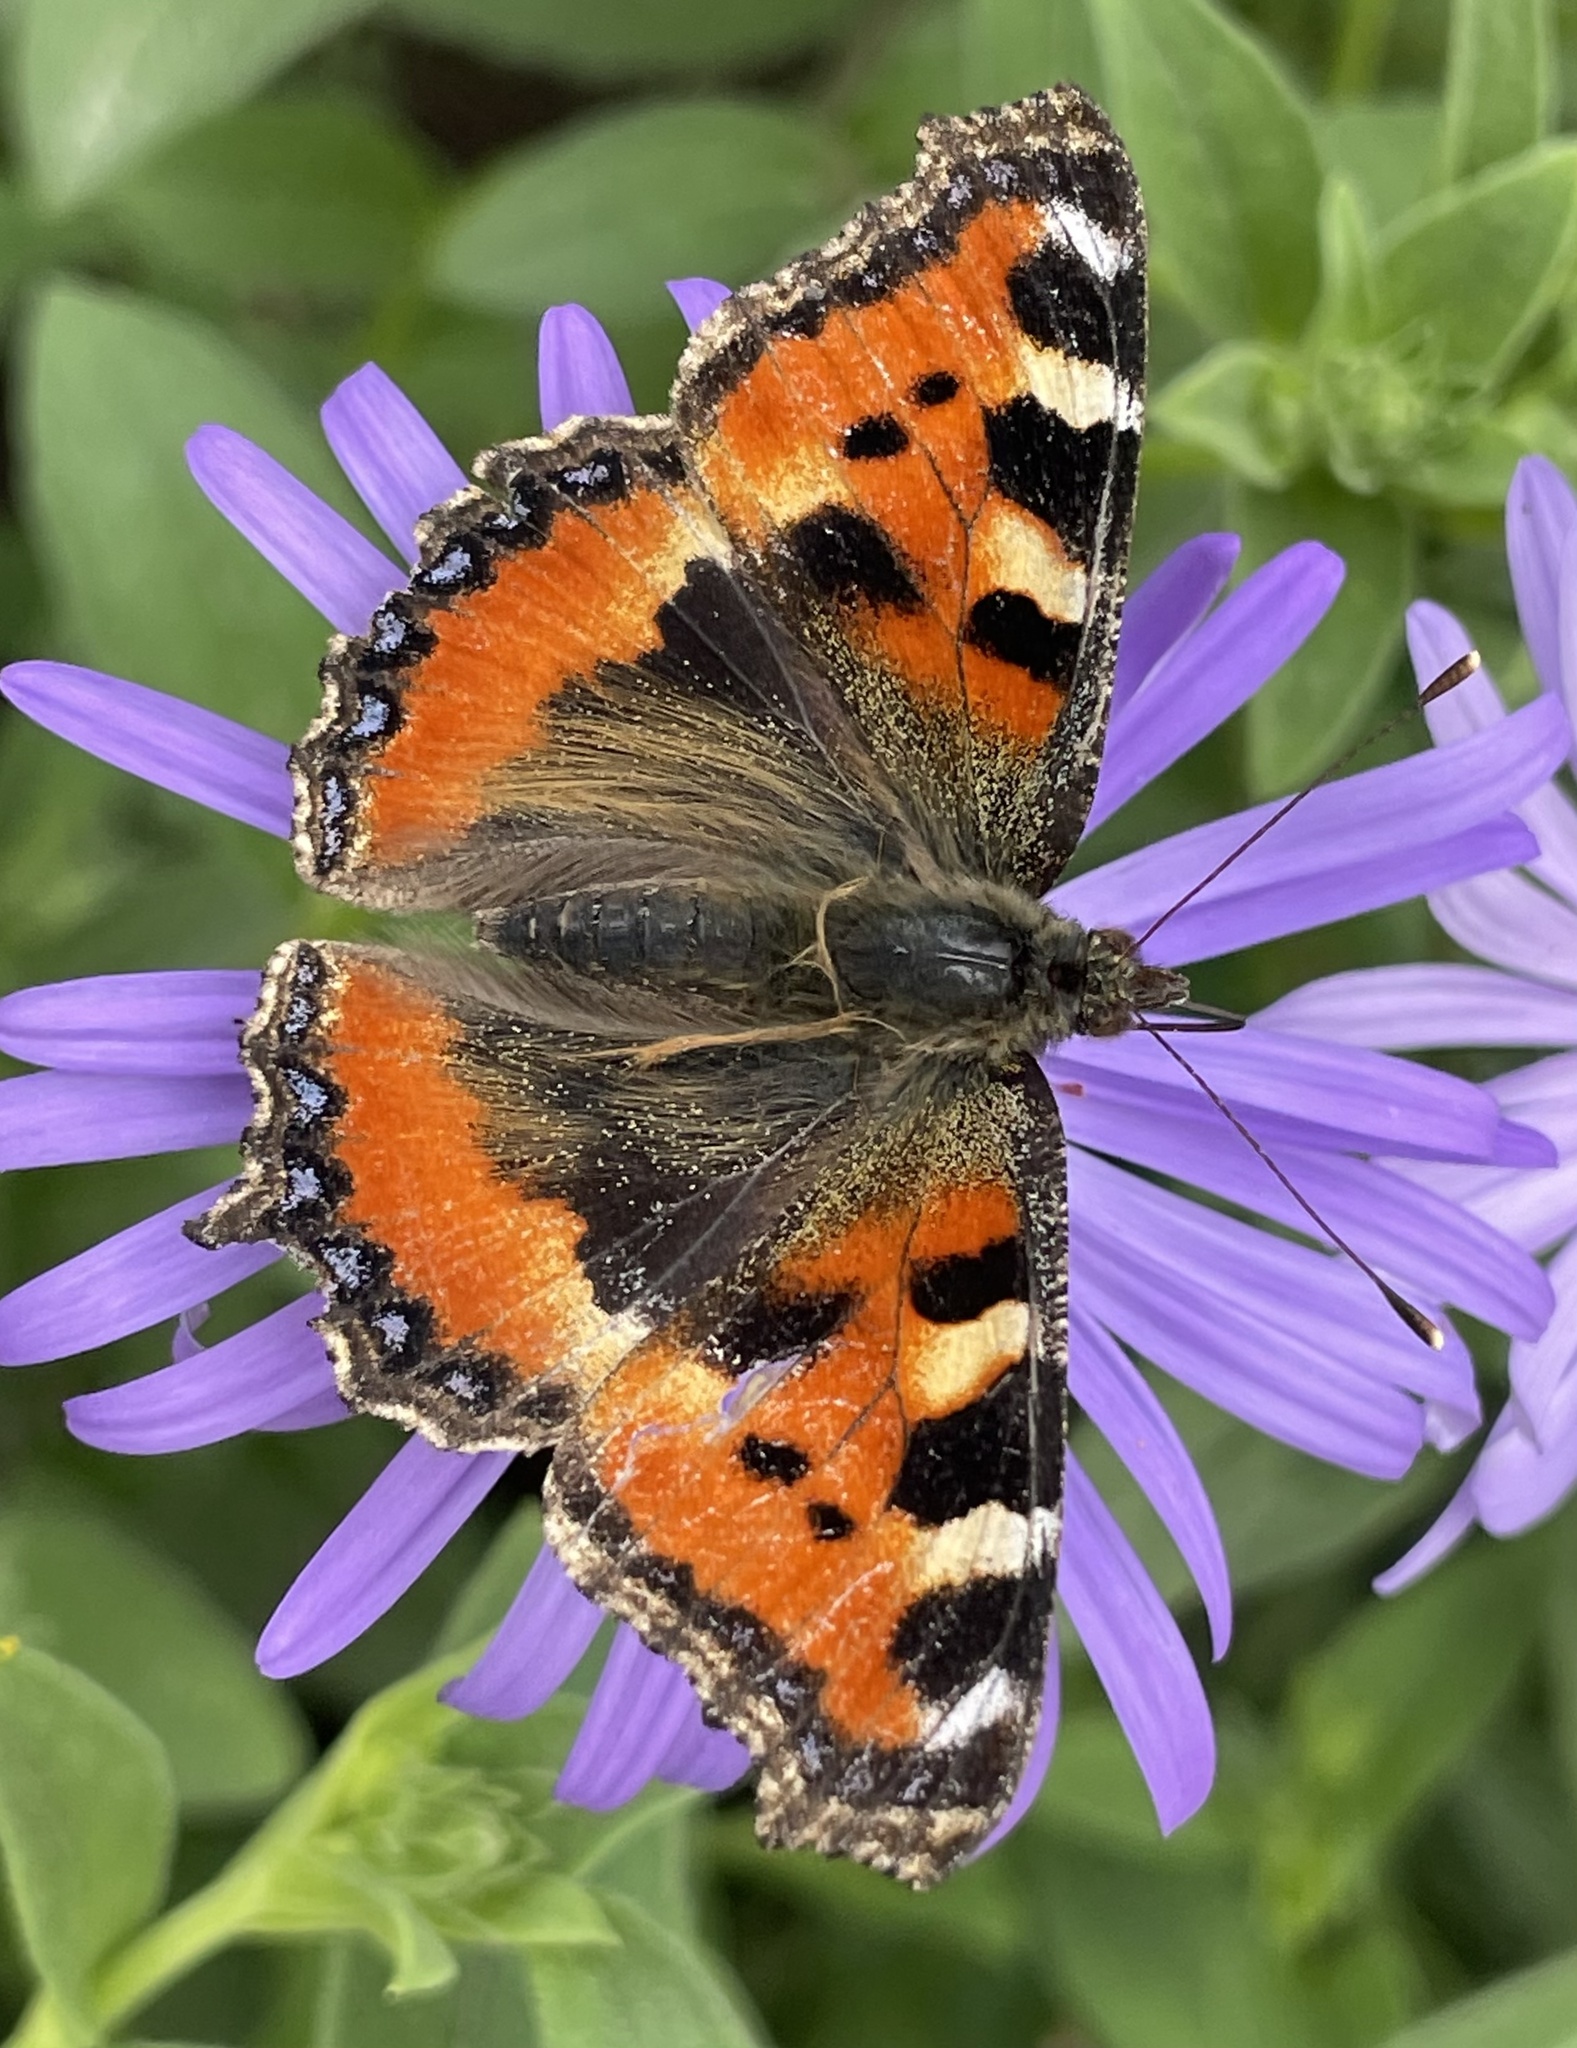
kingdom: Animalia
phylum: Arthropoda
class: Insecta
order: Lepidoptera
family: Nymphalidae
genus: Aglais
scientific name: Aglais urticae
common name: Small tortoiseshell
